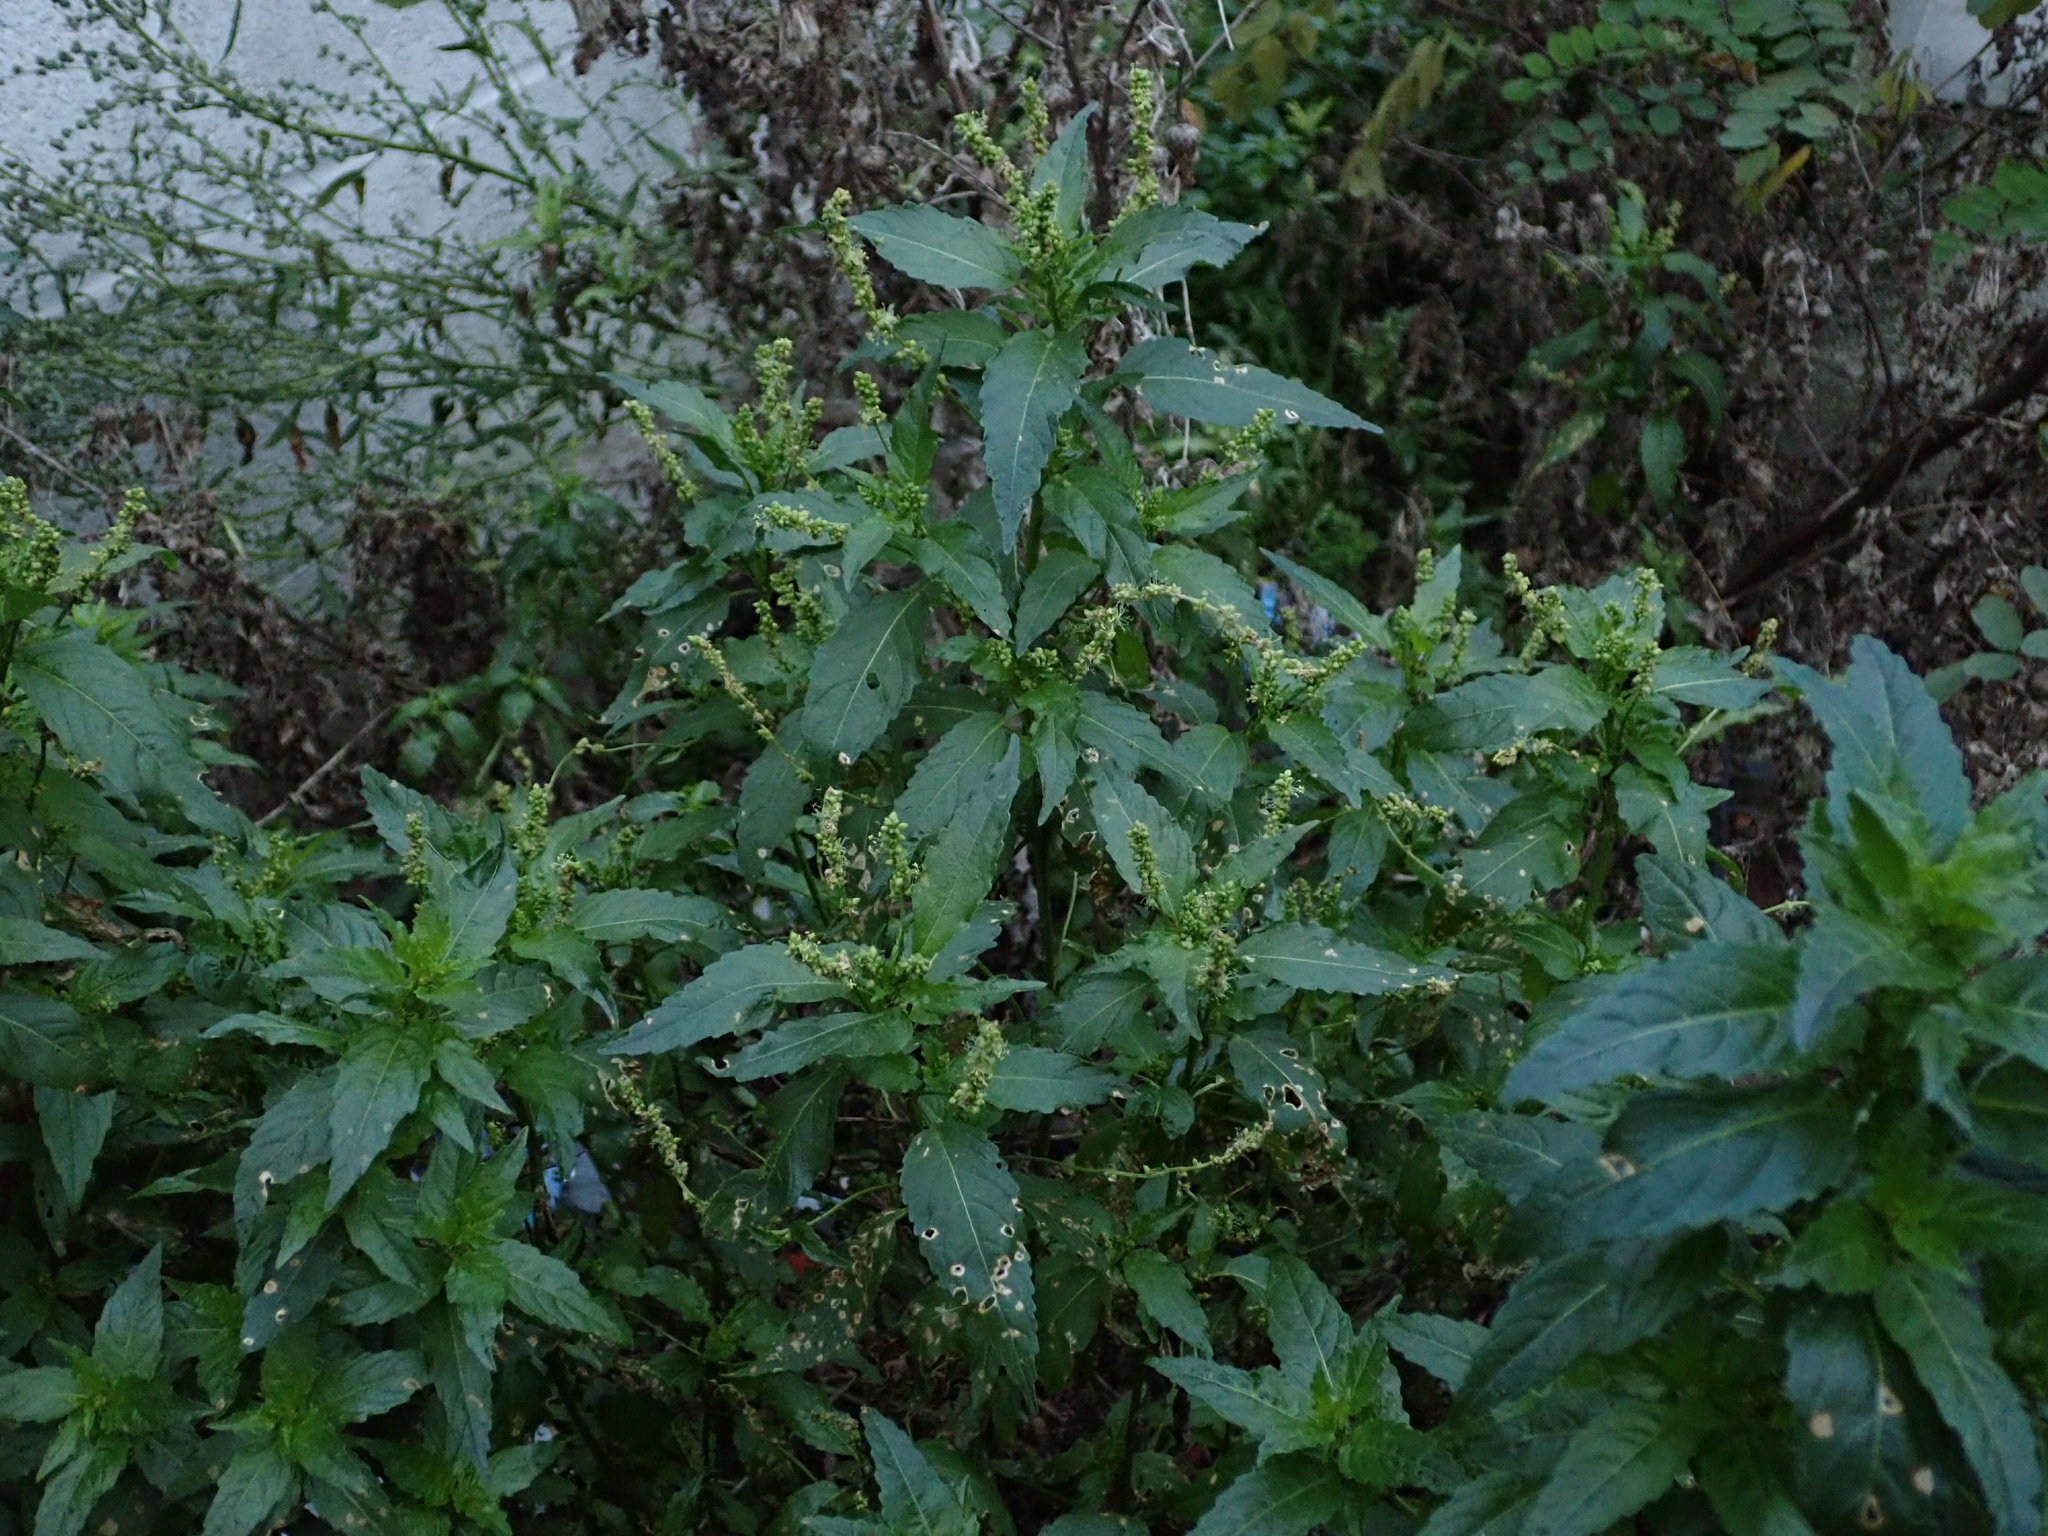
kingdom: Plantae
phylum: Tracheophyta
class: Magnoliopsida
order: Malpighiales
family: Euphorbiaceae
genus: Mercurialis
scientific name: Mercurialis annua
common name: Annual mercury
